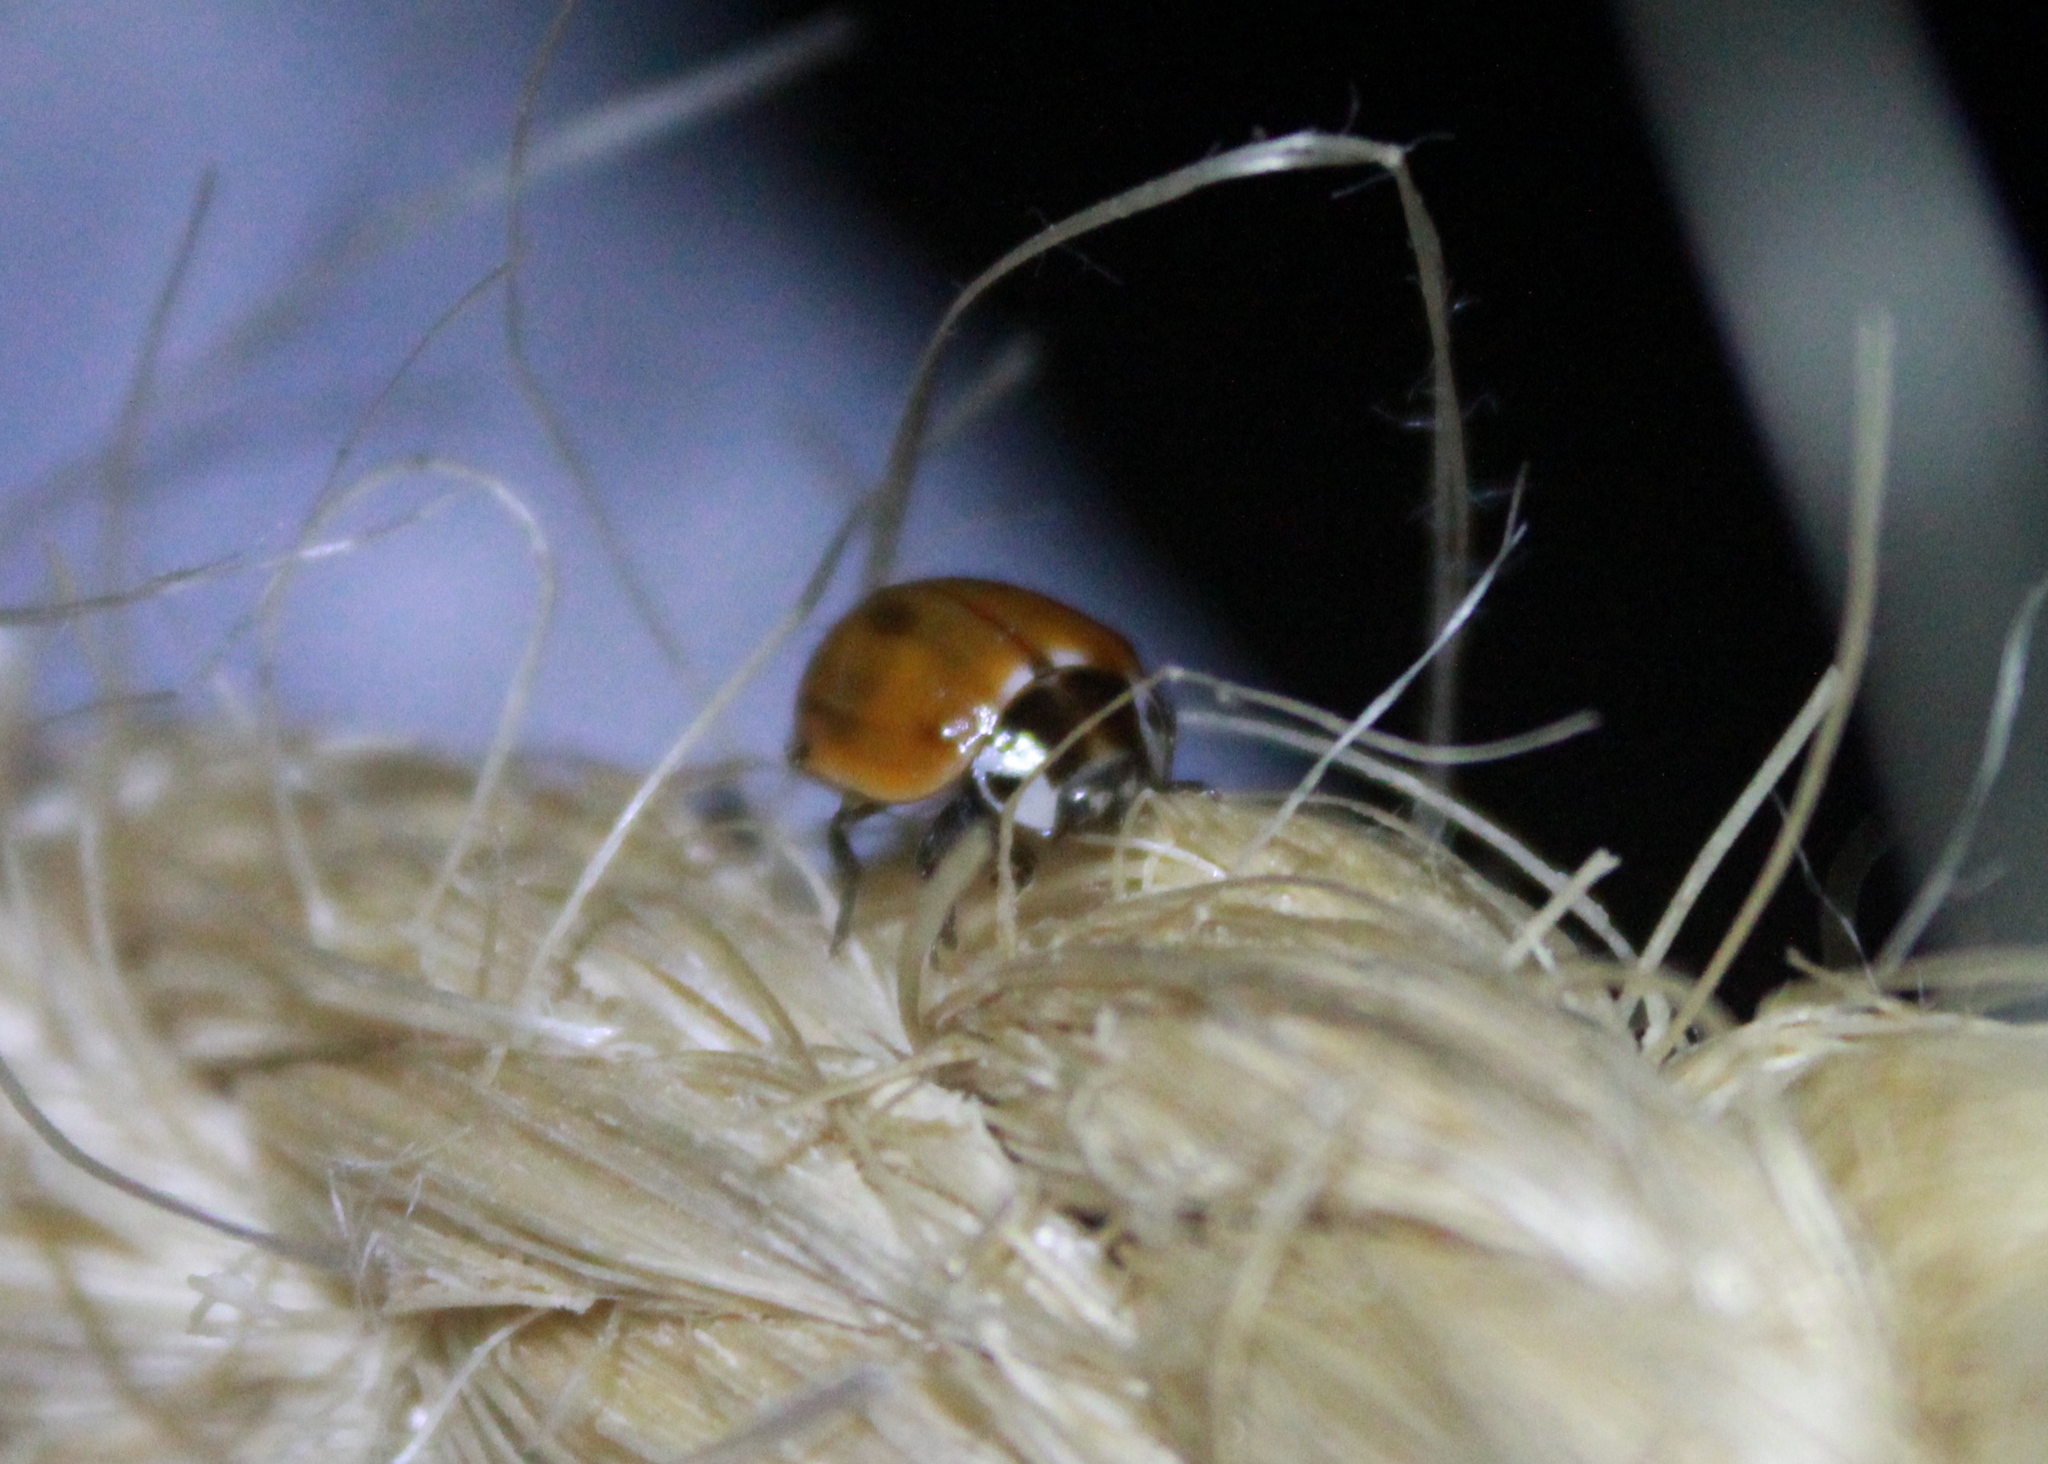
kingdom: Animalia
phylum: Arthropoda
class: Insecta
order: Coleoptera
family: Coccinellidae
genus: Myzia
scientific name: Myzia pullata
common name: Streaked lady beetle
